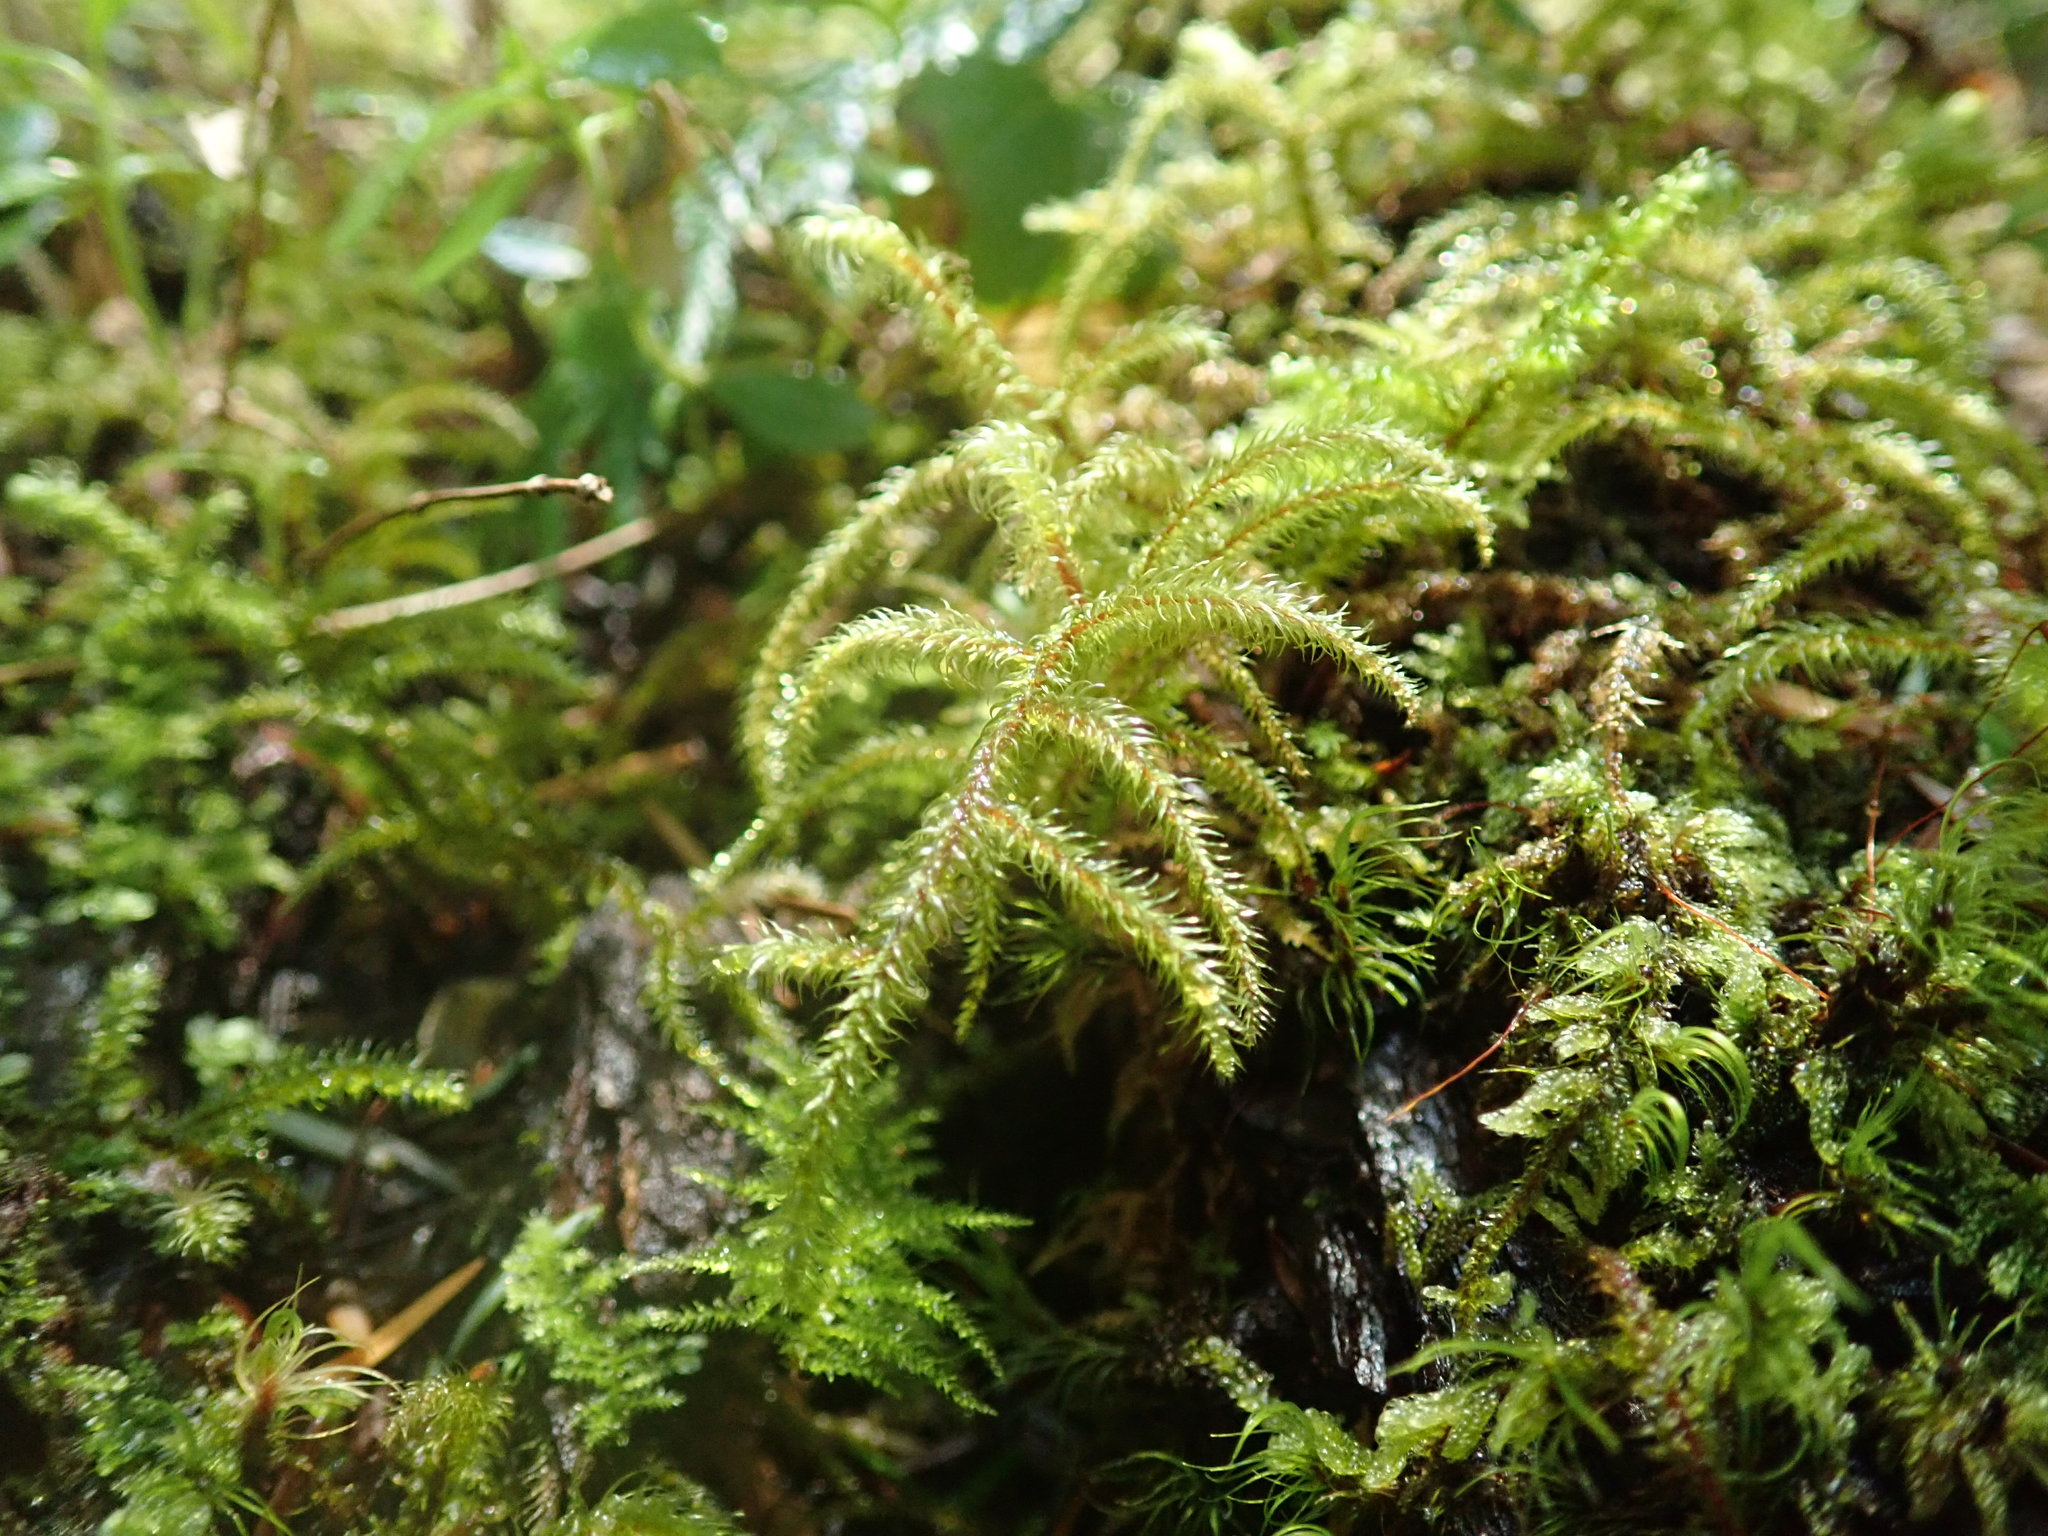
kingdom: Plantae
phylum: Bryophyta
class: Bryopsida
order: Hypnales
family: Hylocomiaceae
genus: Rhytidiadelphus
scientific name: Rhytidiadelphus loreus
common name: Lanky moss
